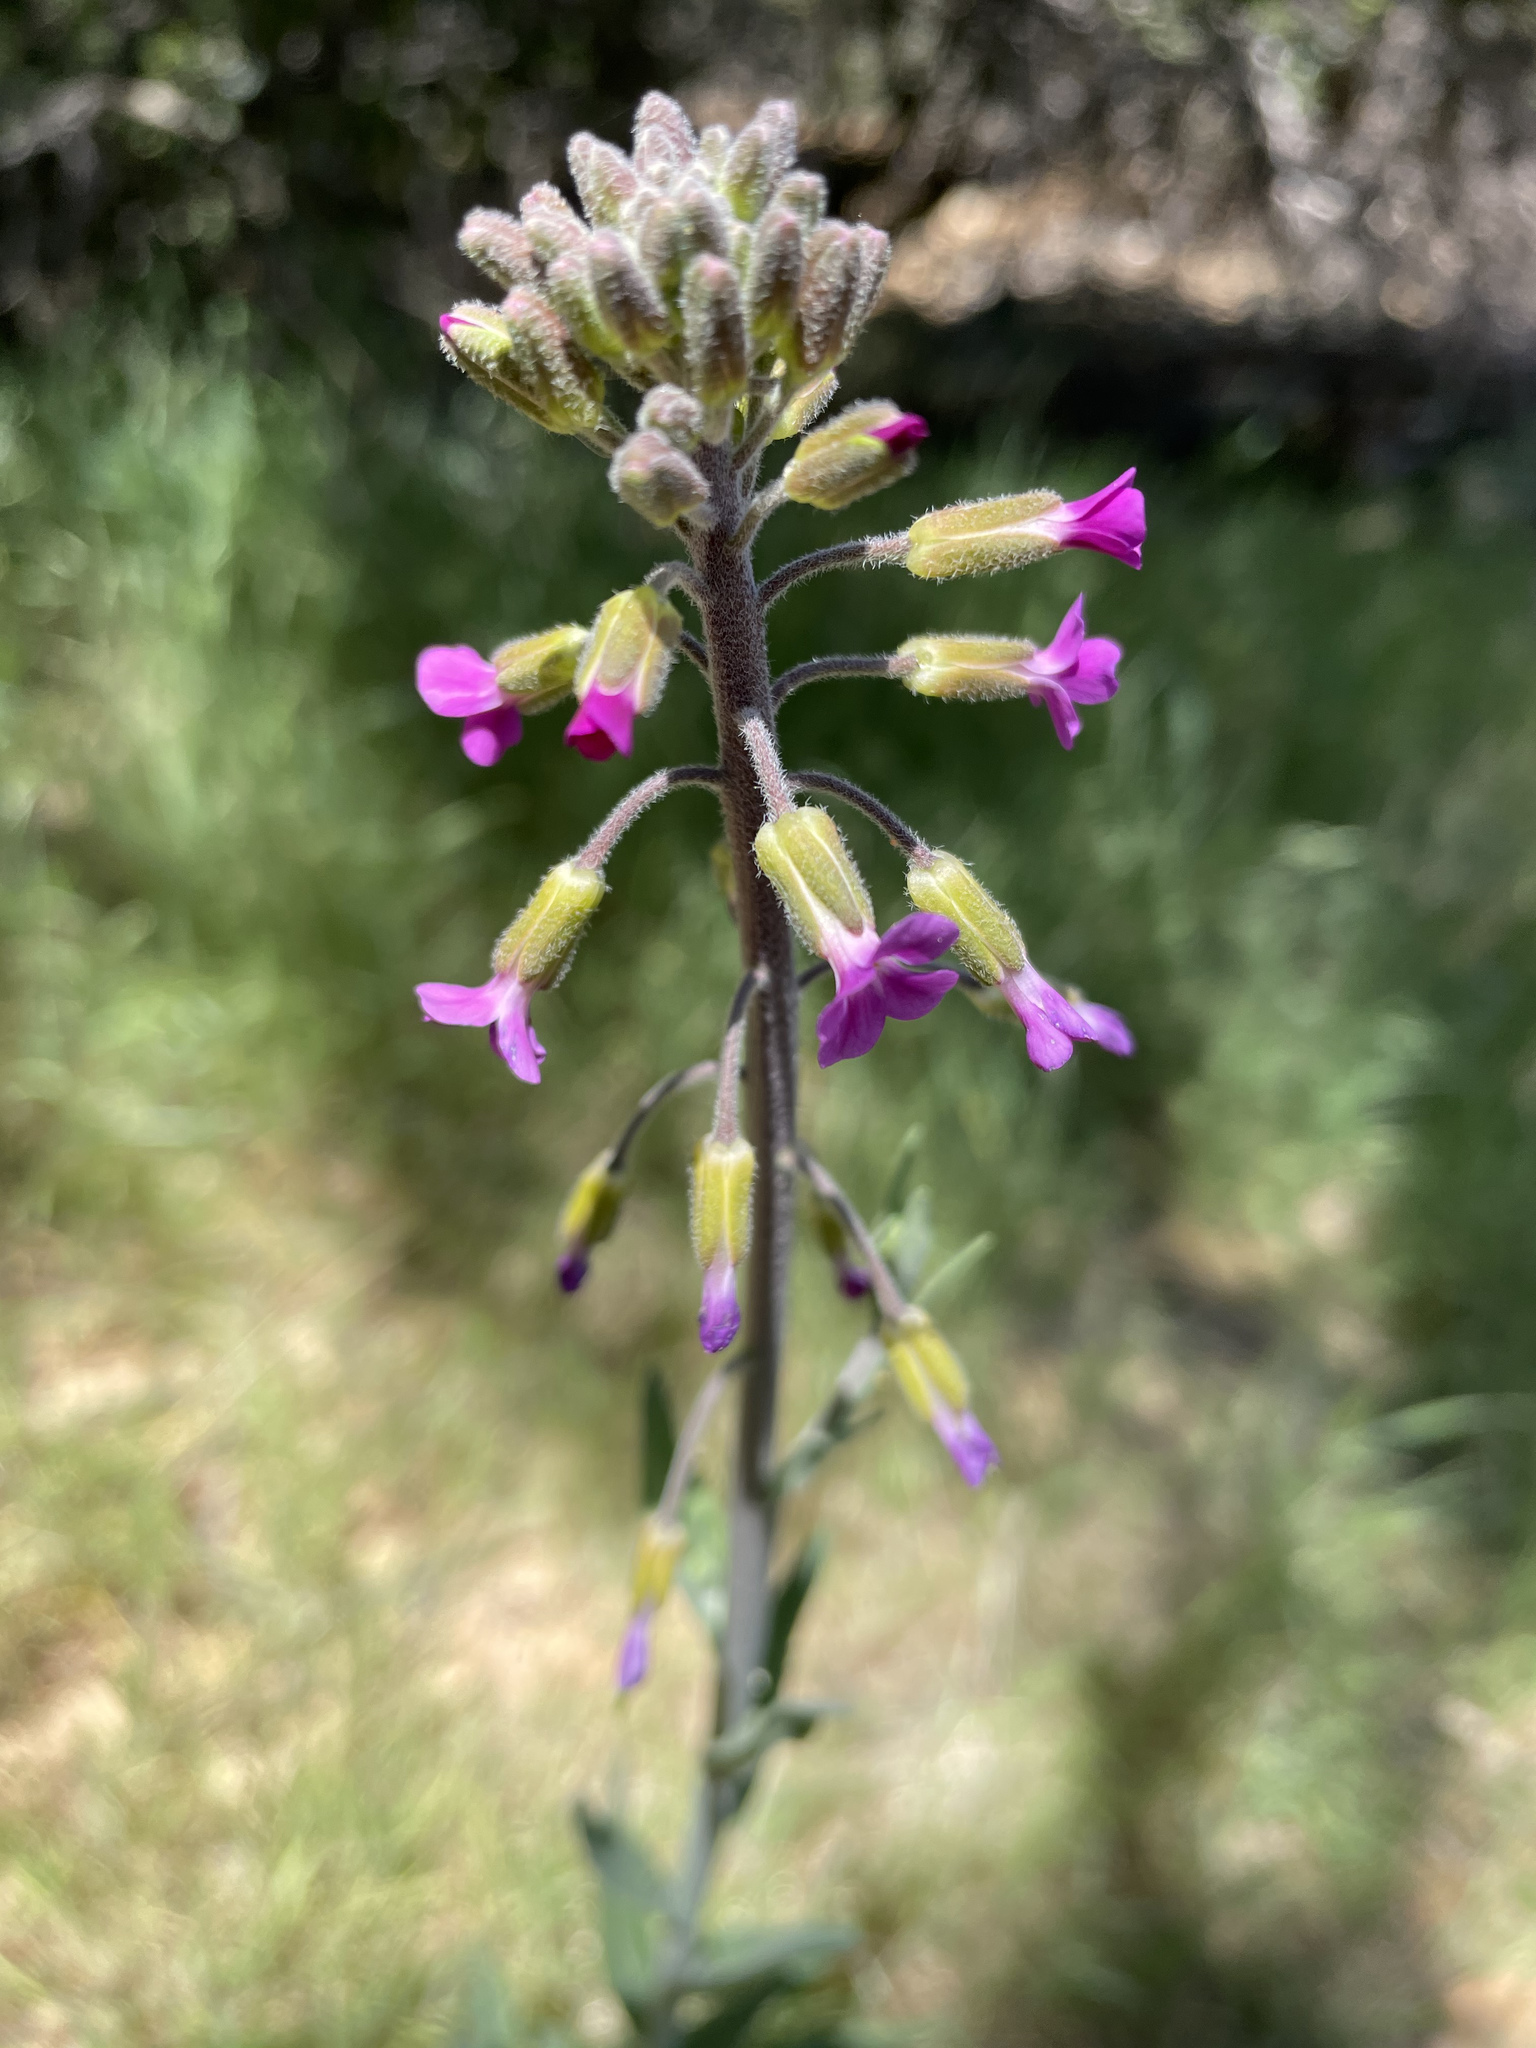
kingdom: Plantae
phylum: Tracheophyta
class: Magnoliopsida
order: Brassicales
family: Brassicaceae
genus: Boechera
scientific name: Boechera californica
